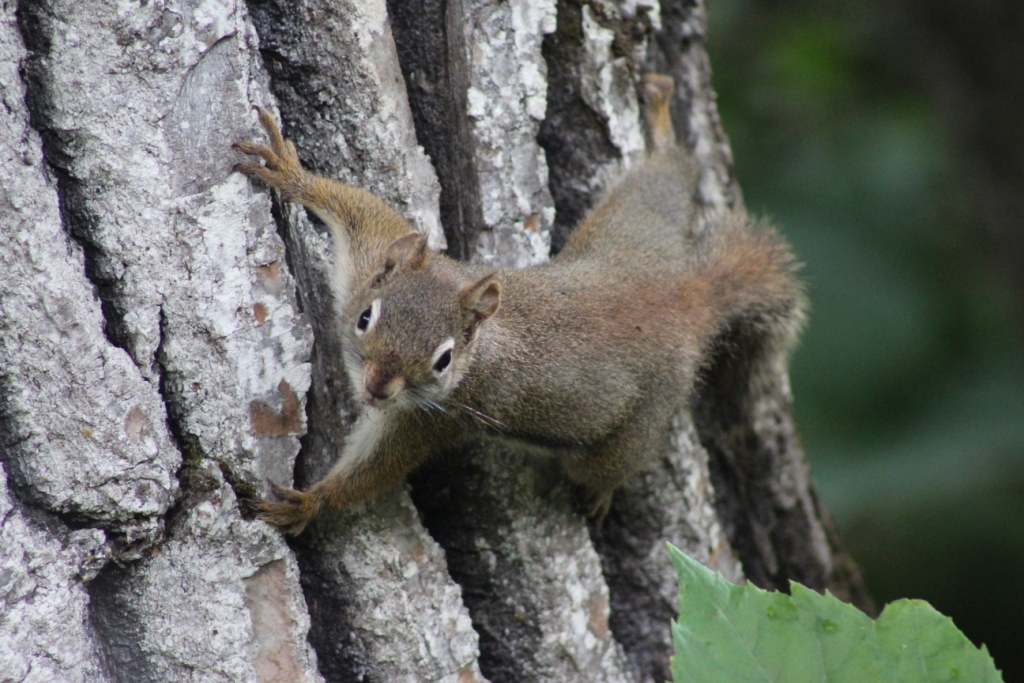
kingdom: Animalia
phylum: Chordata
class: Mammalia
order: Rodentia
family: Sciuridae
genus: Tamiasciurus
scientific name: Tamiasciurus hudsonicus
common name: Red squirrel
